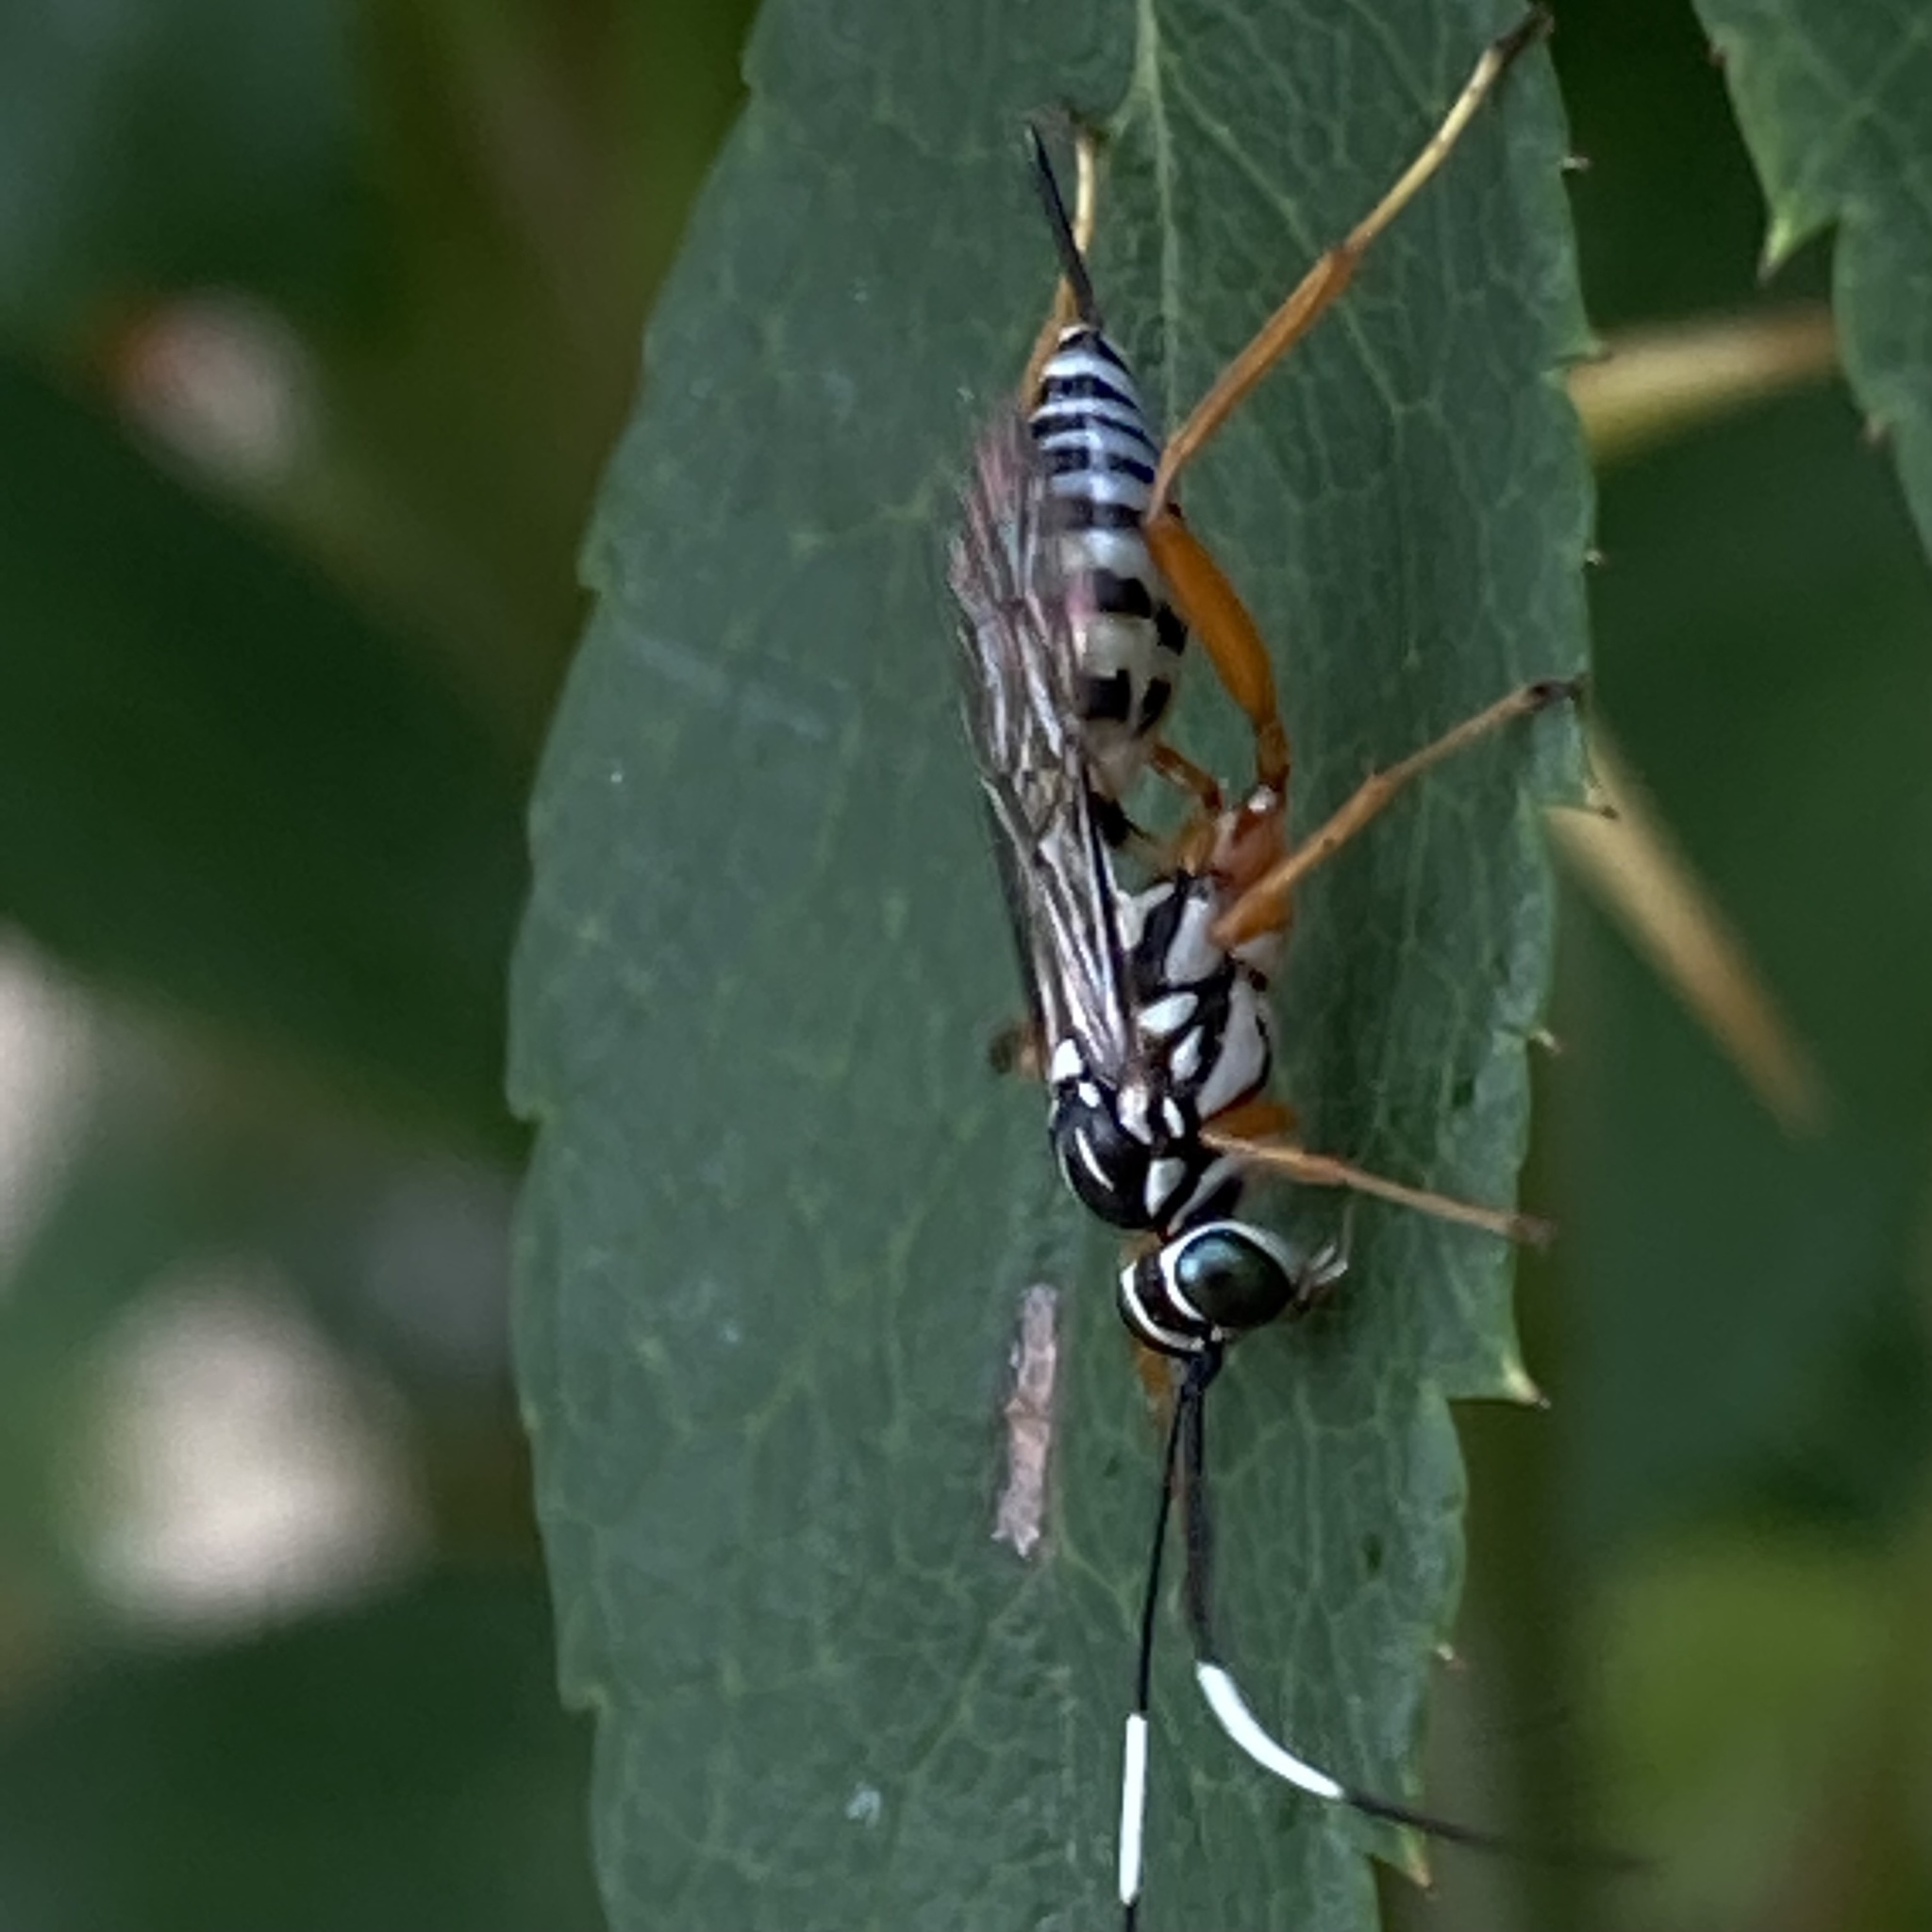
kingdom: Animalia
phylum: Arthropoda
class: Insecta
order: Hymenoptera
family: Ichneumonidae
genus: Lymeon
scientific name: Lymeon orbus
